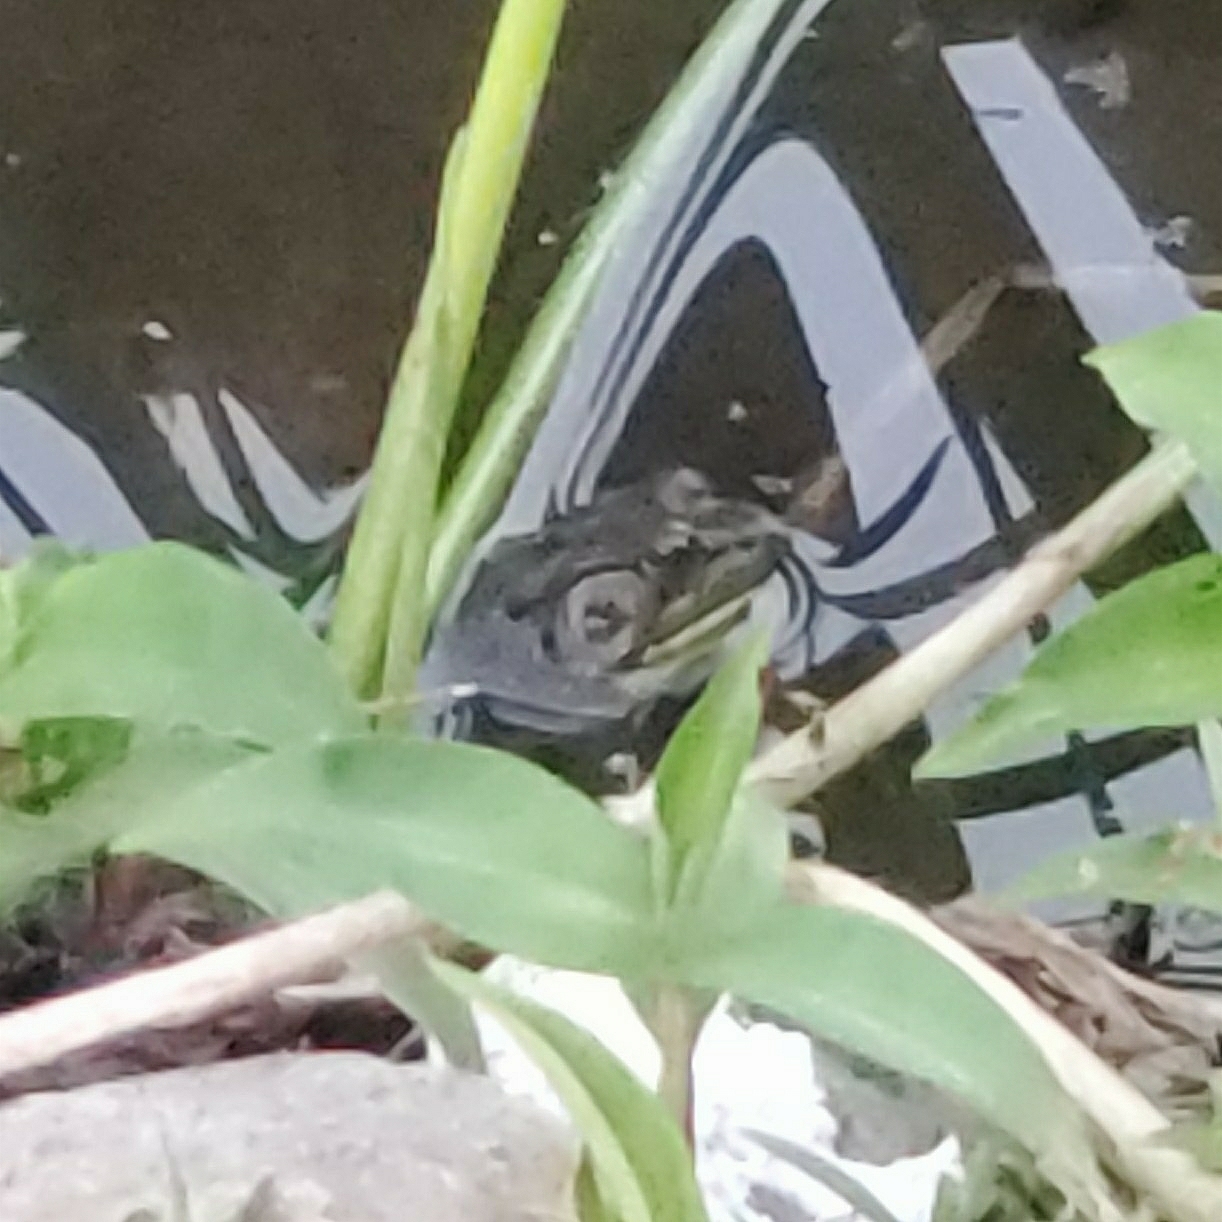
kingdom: Animalia
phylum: Chordata
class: Amphibia
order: Anura
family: Ranidae
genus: Lithobates
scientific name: Lithobates catesbeianus
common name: American bullfrog
